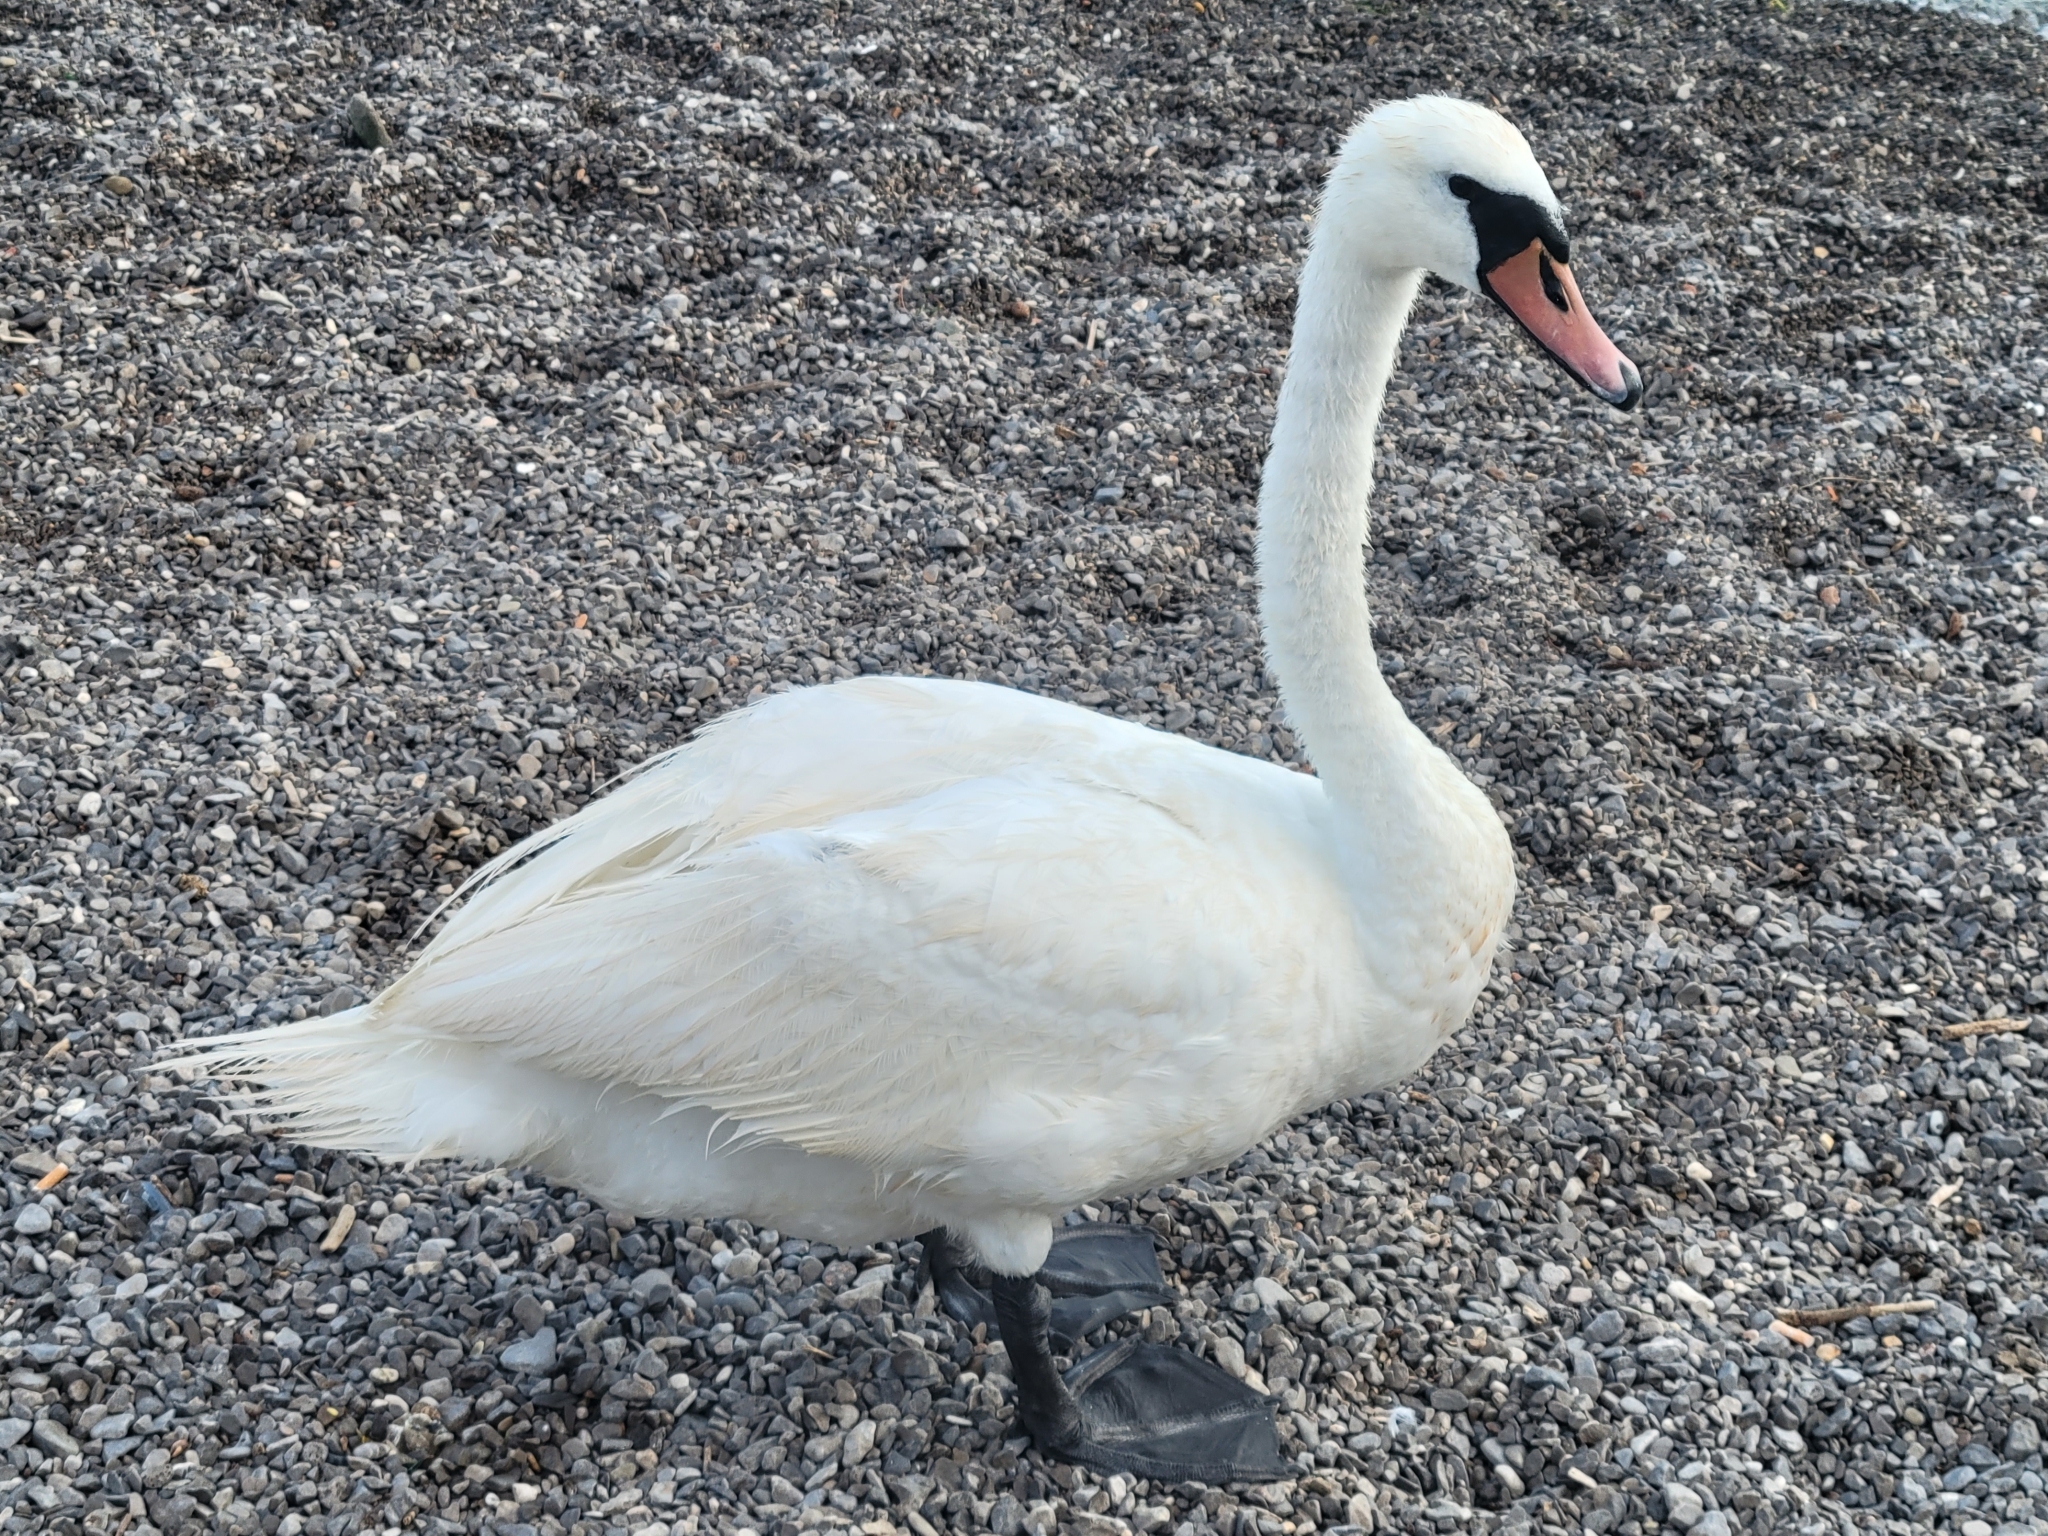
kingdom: Animalia
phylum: Chordata
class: Aves
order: Anseriformes
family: Anatidae
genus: Cygnus
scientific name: Cygnus olor
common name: Mute swan
